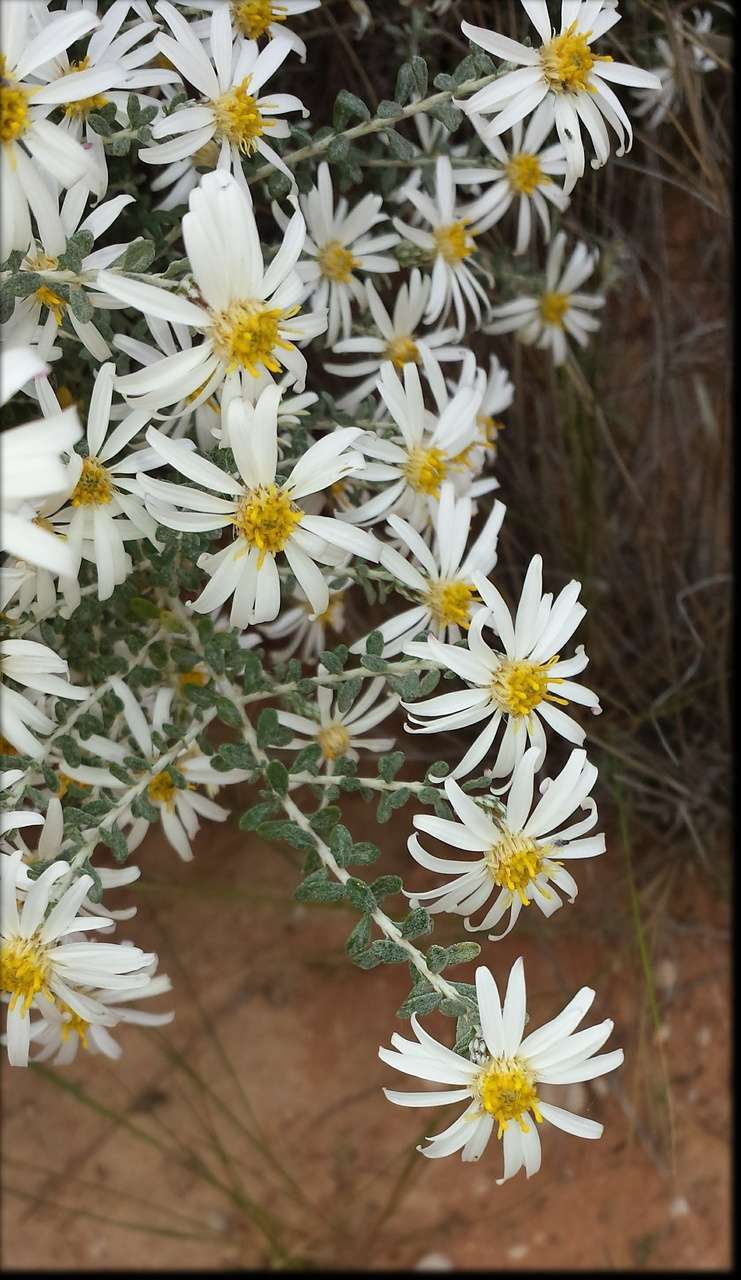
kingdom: Plantae
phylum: Tracheophyta
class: Magnoliopsida
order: Asterales
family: Asteraceae
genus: Olearia
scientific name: Olearia pimeleoides
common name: Showy daisybush
